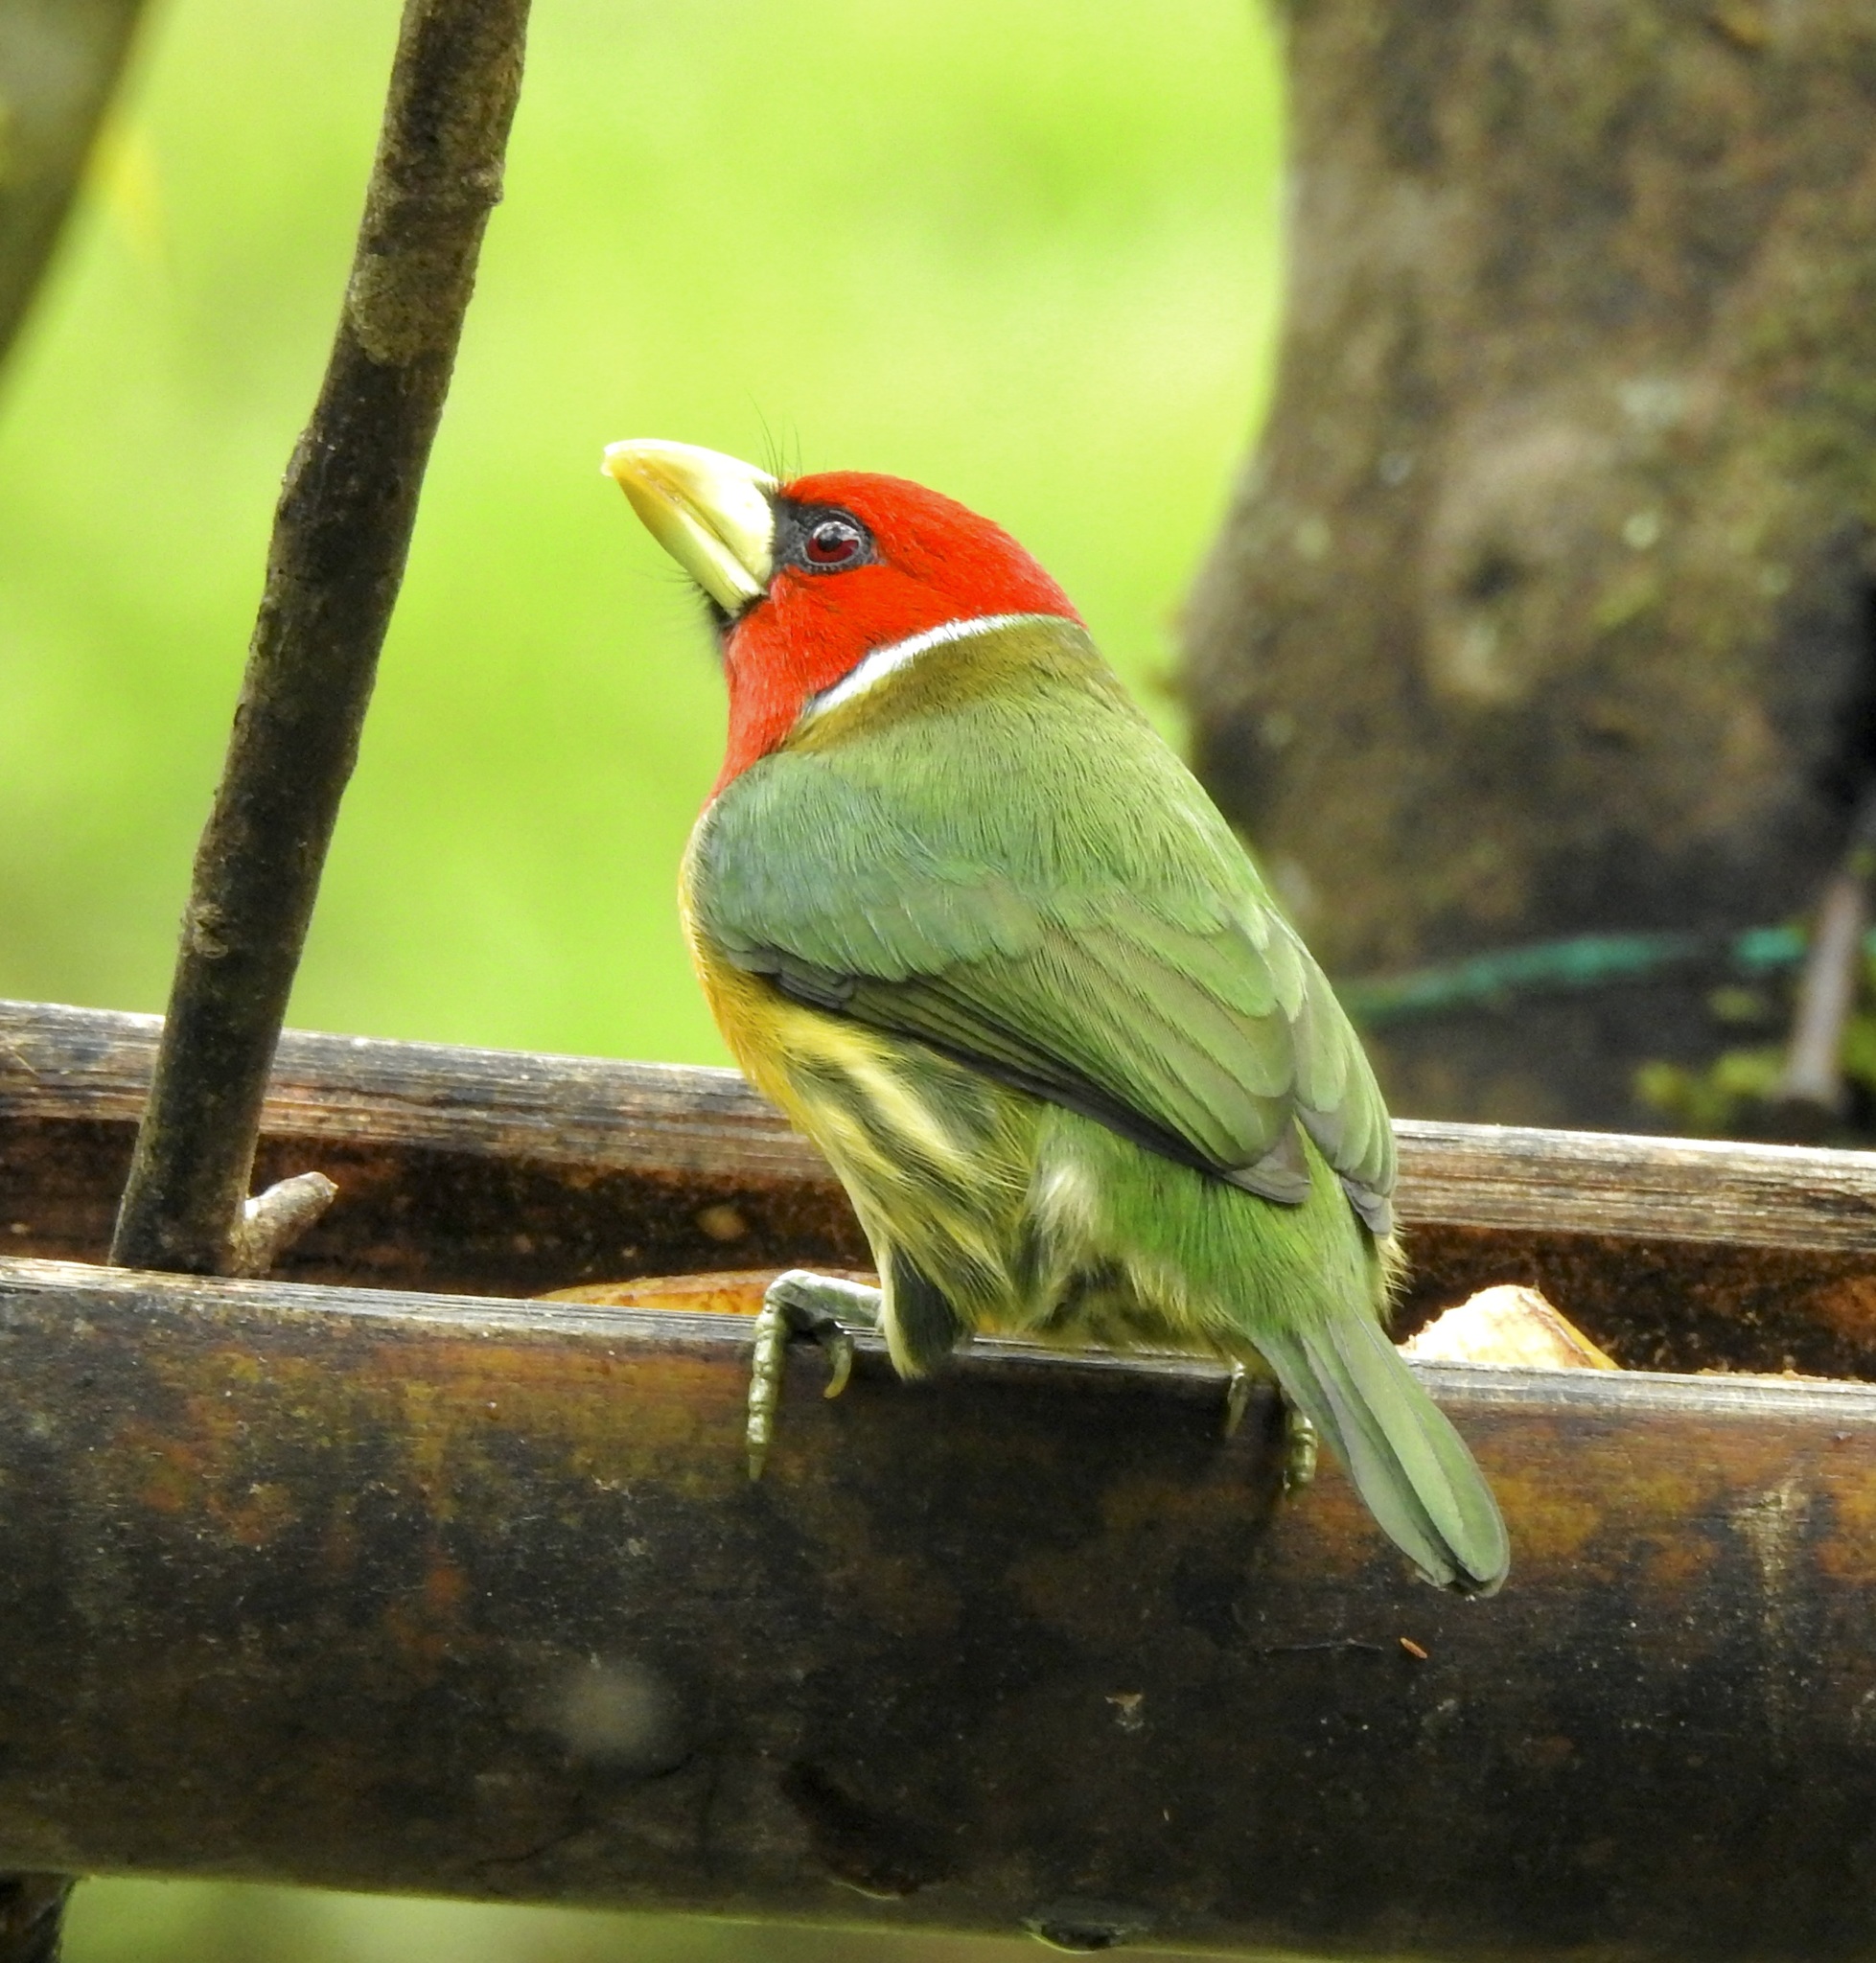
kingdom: Animalia
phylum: Chordata
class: Aves
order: Piciformes
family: Capitonidae
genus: Eubucco
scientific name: Eubucco bourcierii
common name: Red-headed barbet
